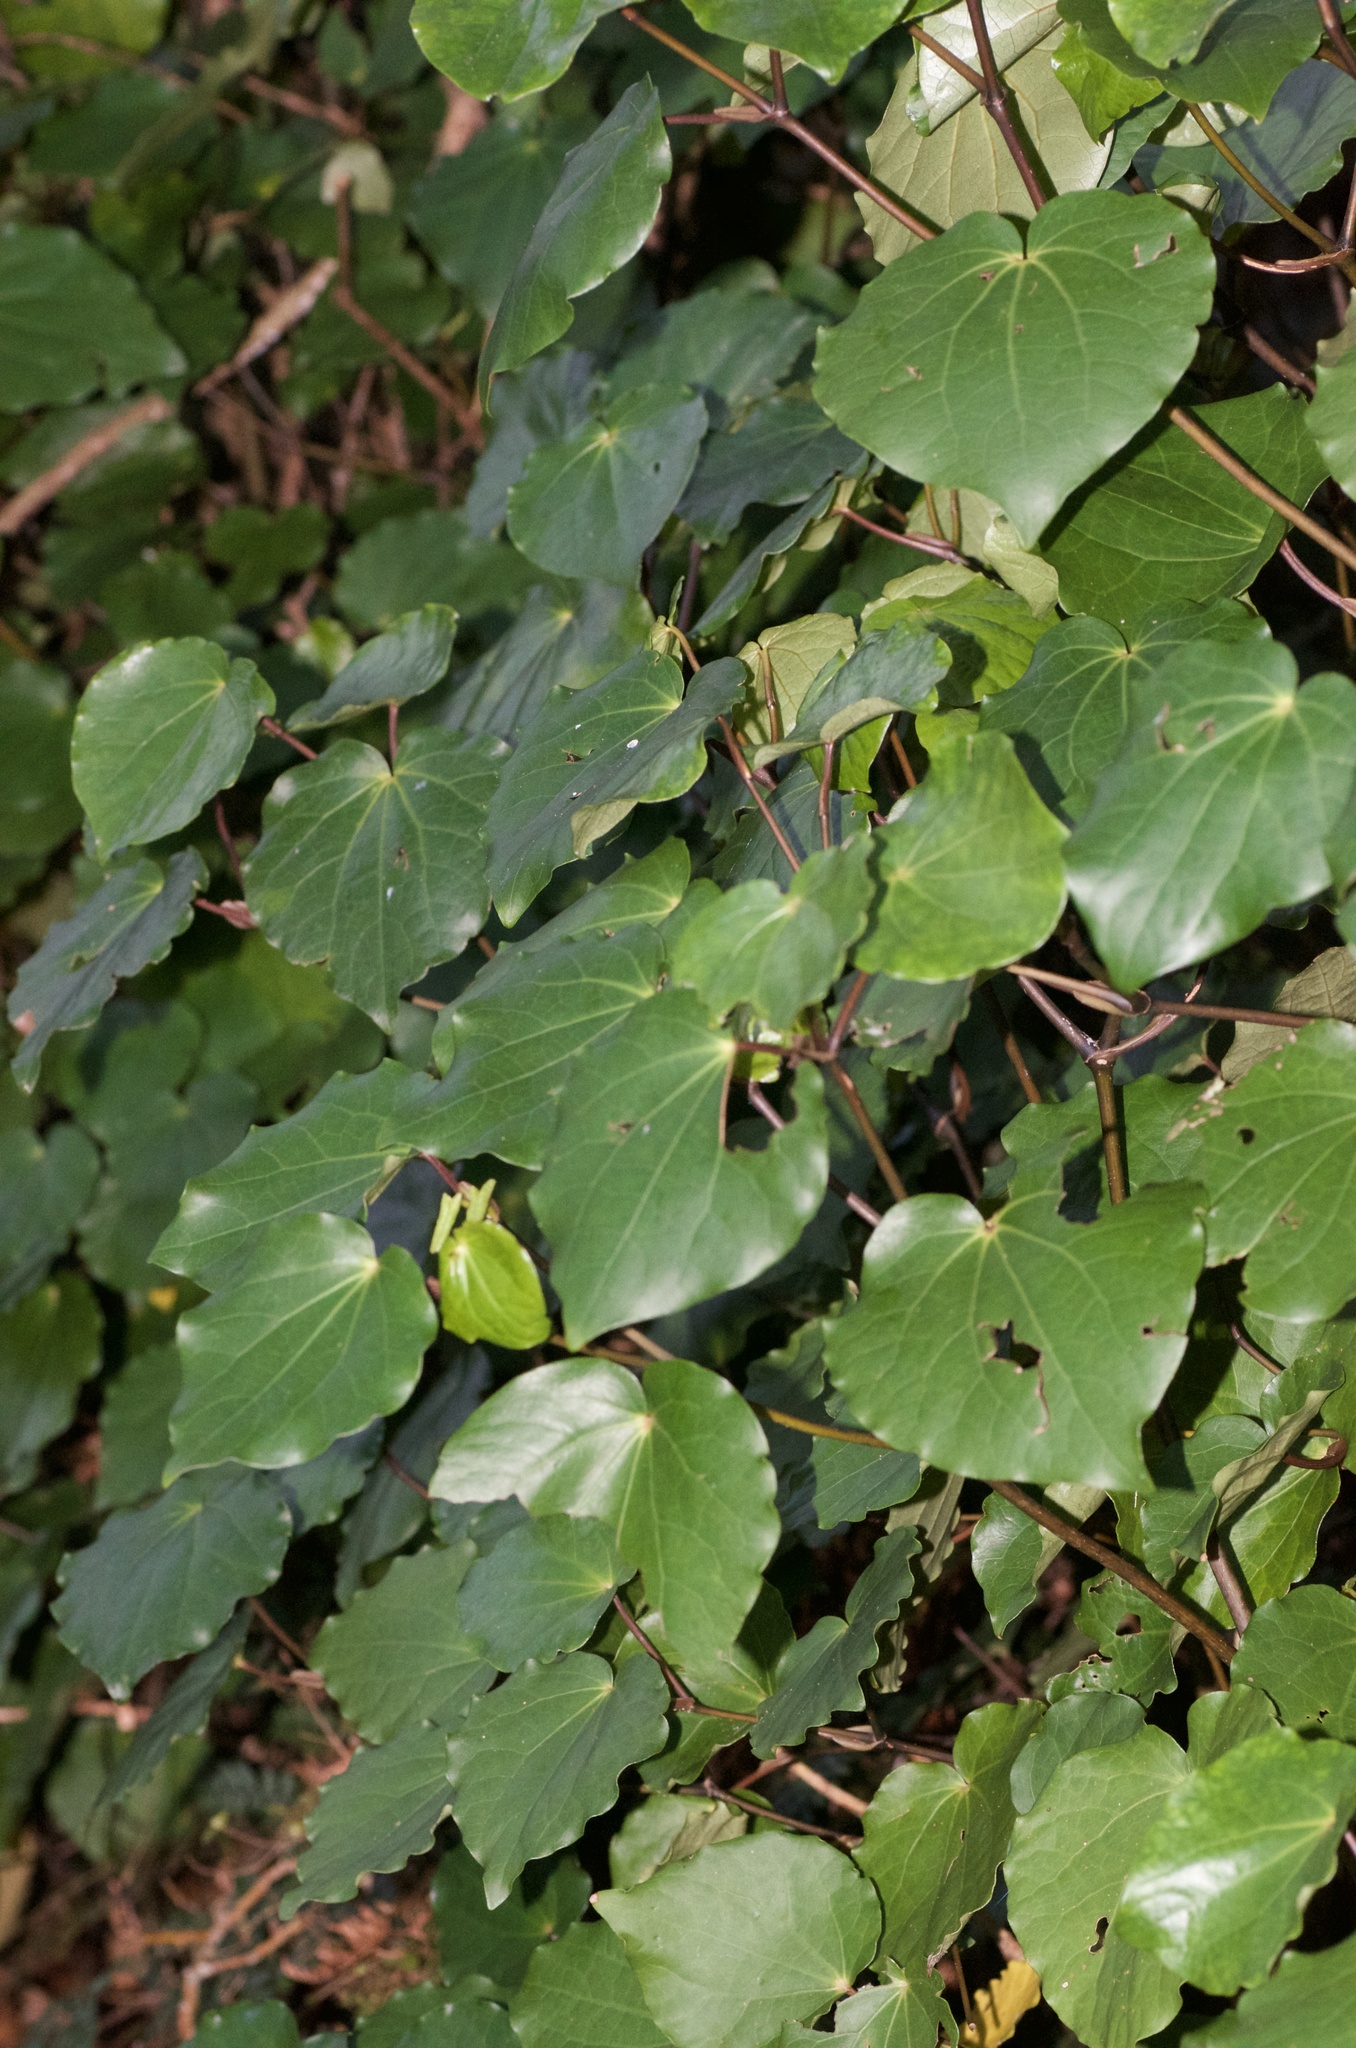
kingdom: Plantae
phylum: Tracheophyta
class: Magnoliopsida
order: Piperales
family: Piperaceae
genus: Macropiper
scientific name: Macropiper excelsum
